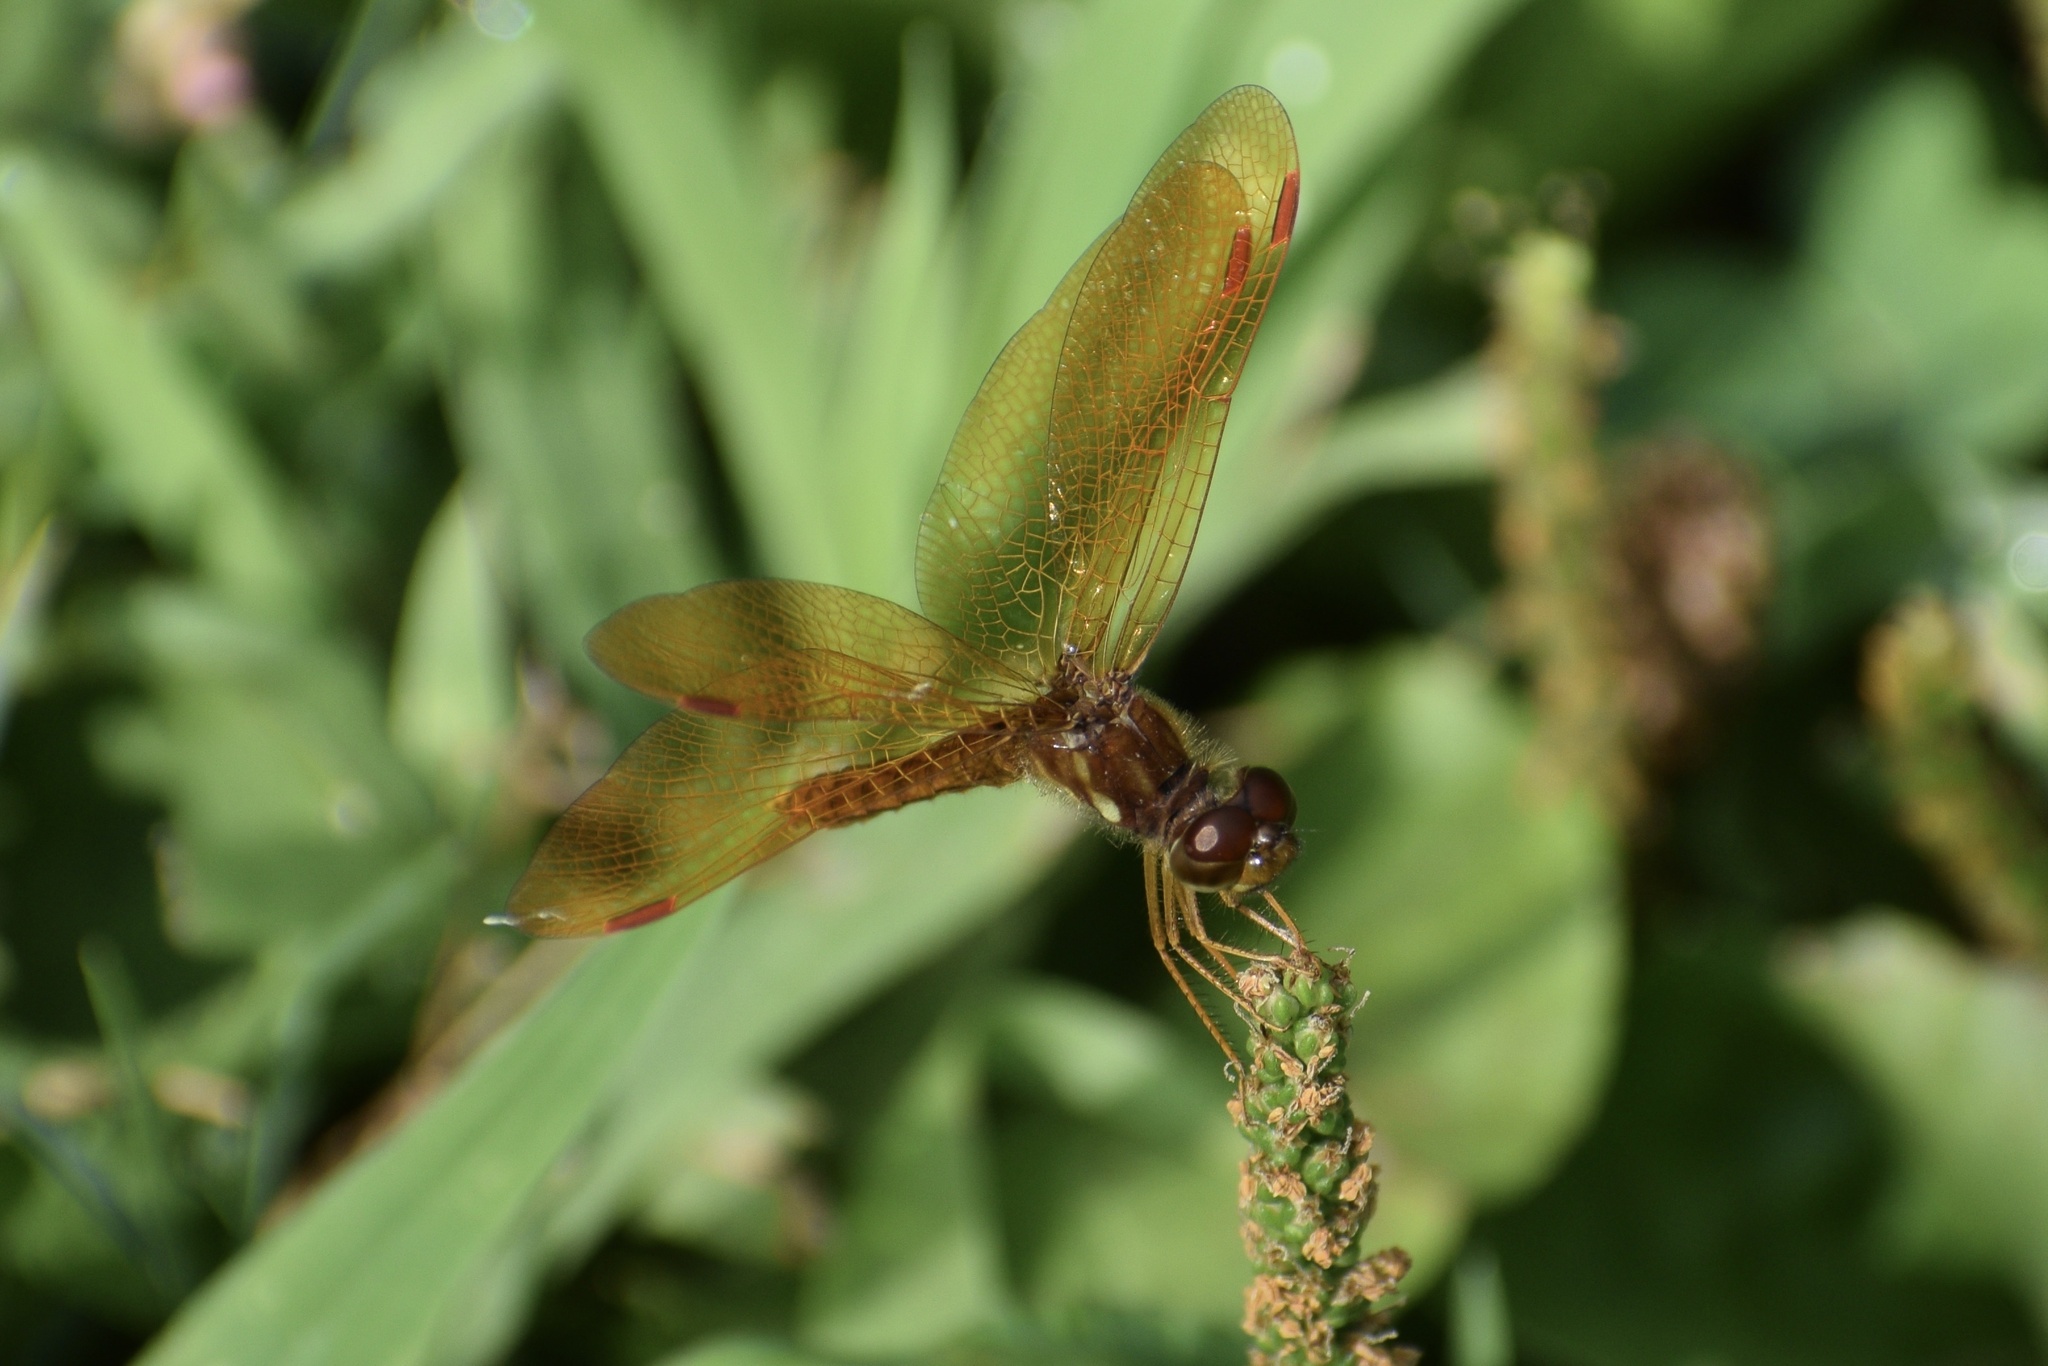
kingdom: Animalia
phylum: Arthropoda
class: Insecta
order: Odonata
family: Libellulidae
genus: Perithemis
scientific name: Perithemis tenera
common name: Eastern amberwing
